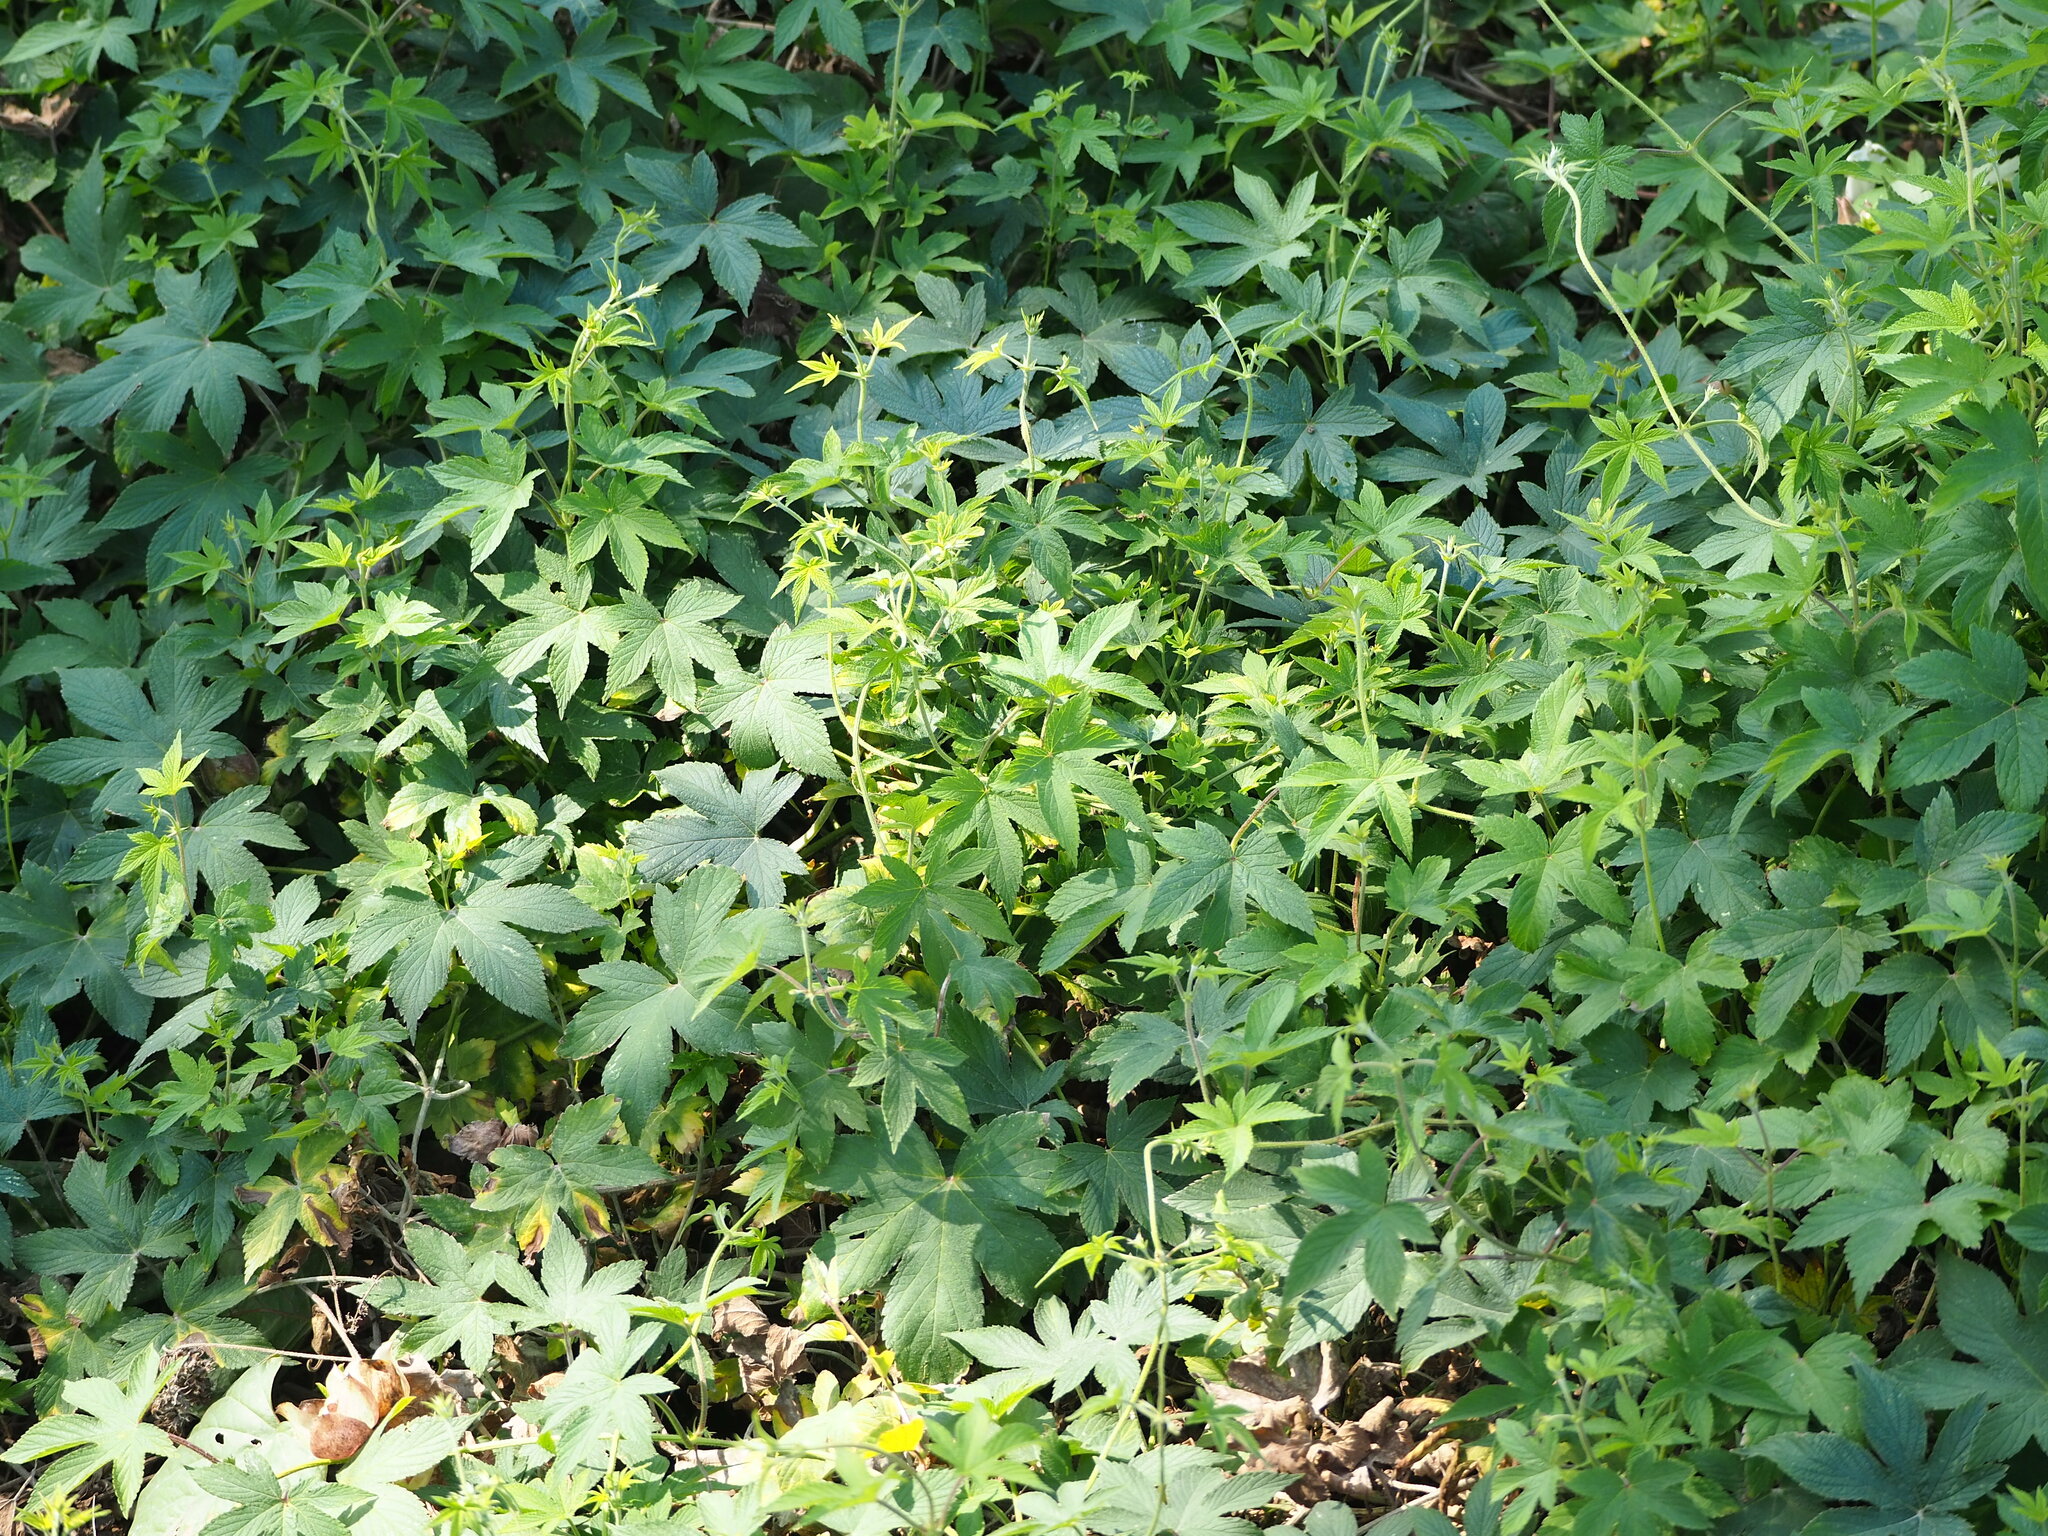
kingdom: Plantae
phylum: Tracheophyta
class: Magnoliopsida
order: Rosales
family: Cannabaceae
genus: Humulus
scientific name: Humulus scandens
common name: Japanese hop
